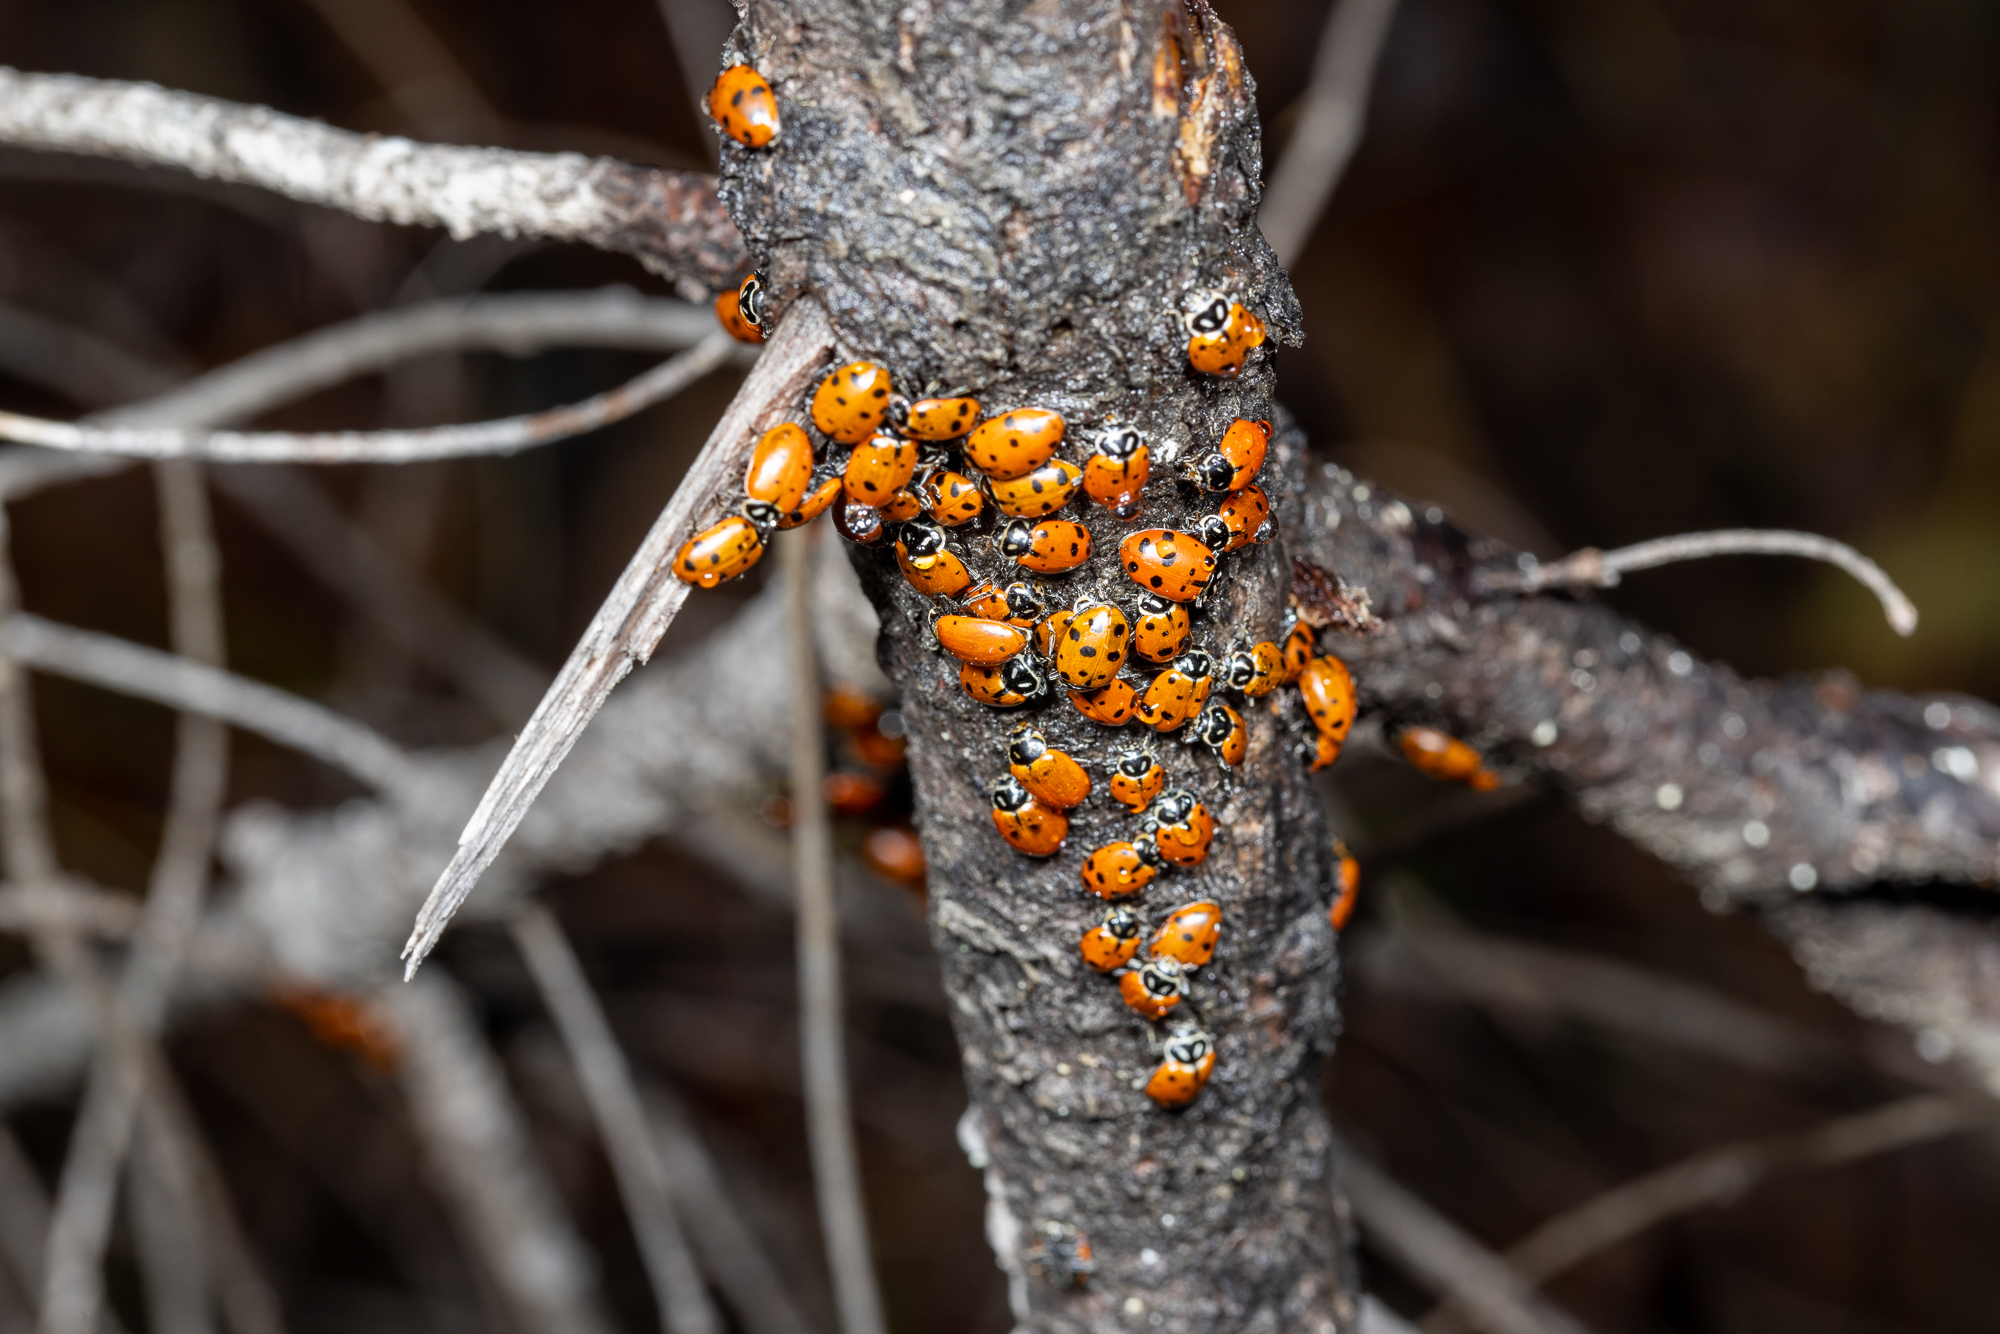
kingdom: Animalia
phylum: Arthropoda
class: Insecta
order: Coleoptera
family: Coccinellidae
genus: Hippodamia
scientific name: Hippodamia convergens
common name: Convergent lady beetle
